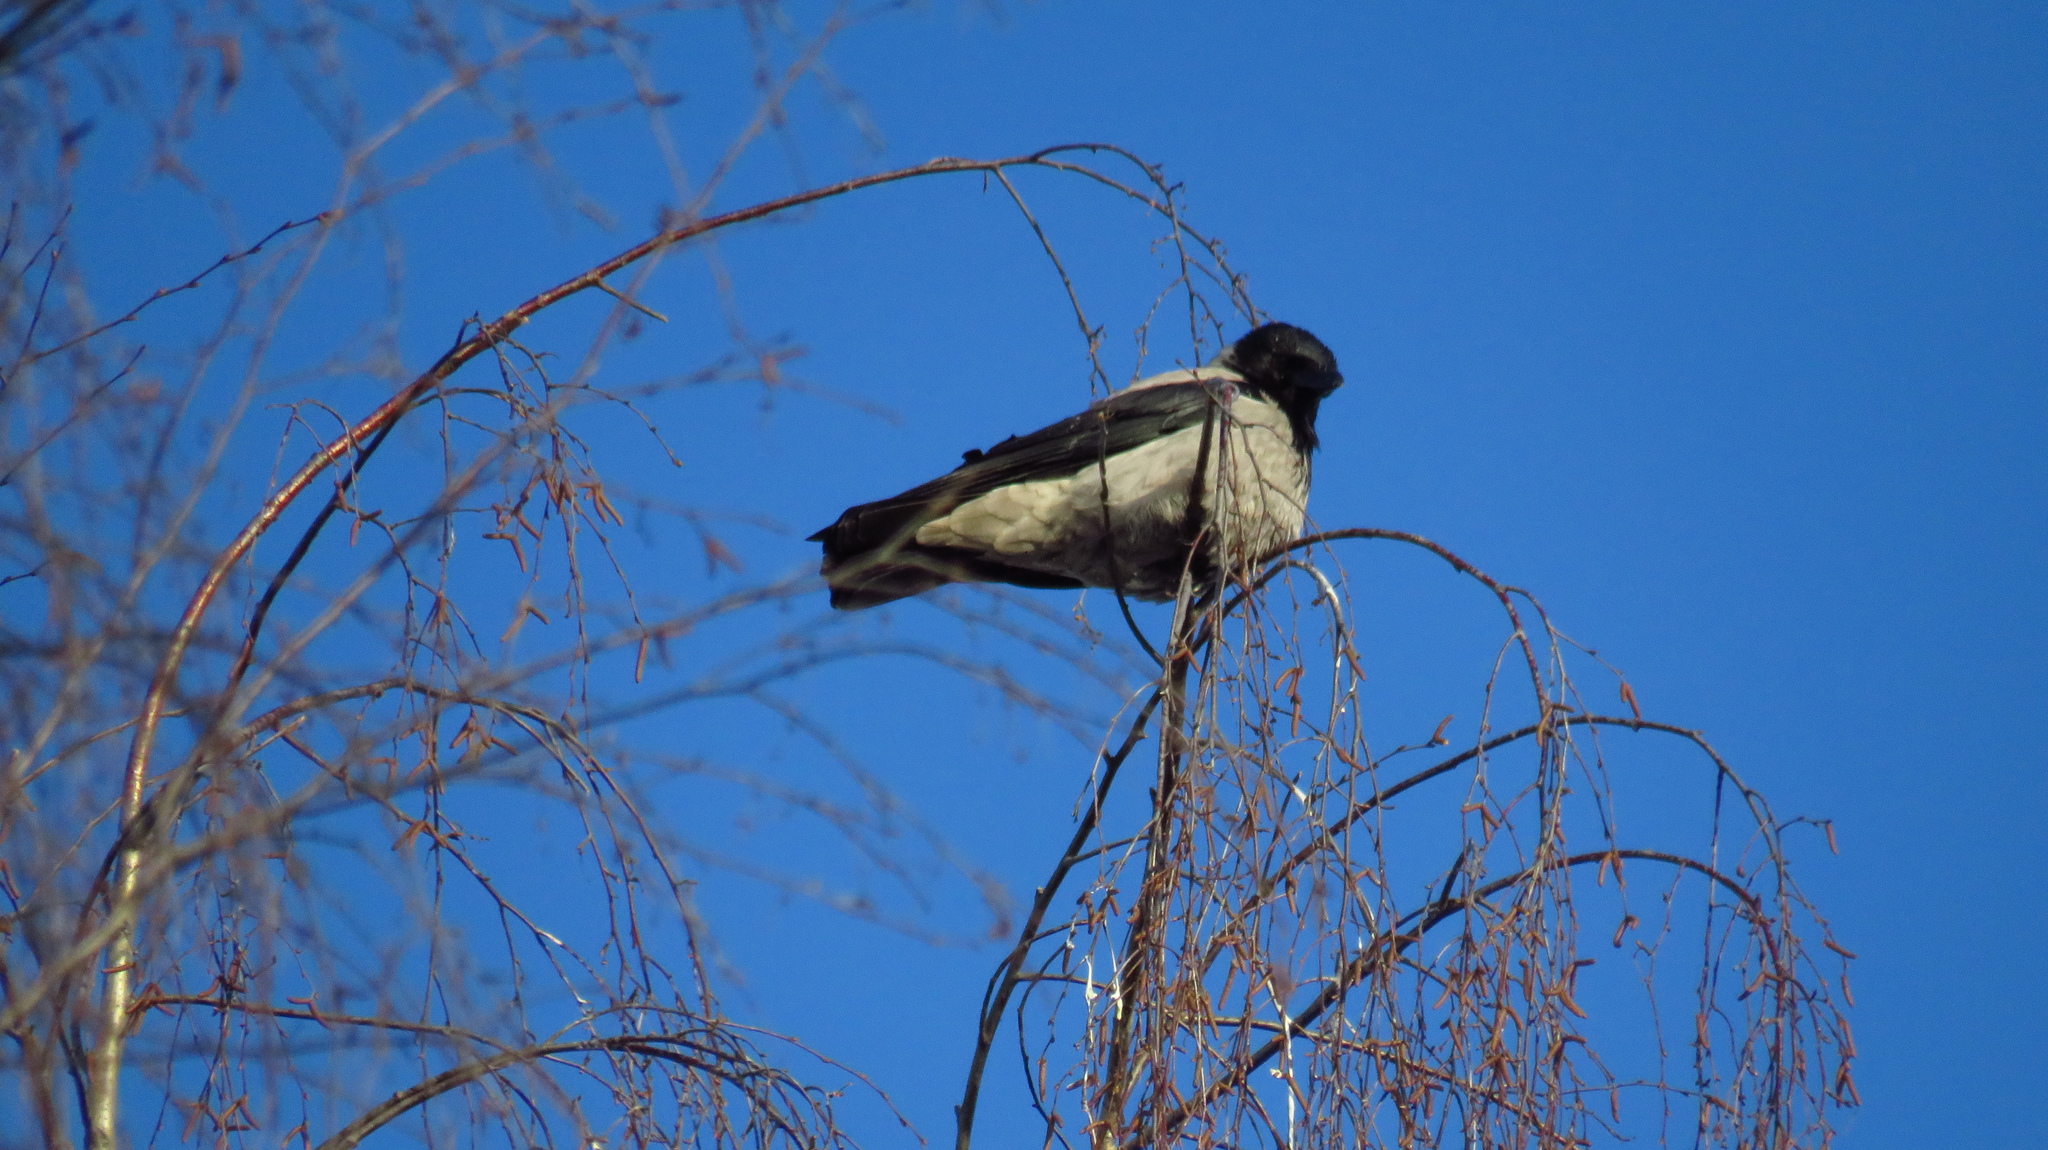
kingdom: Animalia
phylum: Chordata
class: Aves
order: Passeriformes
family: Corvidae
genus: Corvus
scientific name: Corvus cornix
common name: Hooded crow
